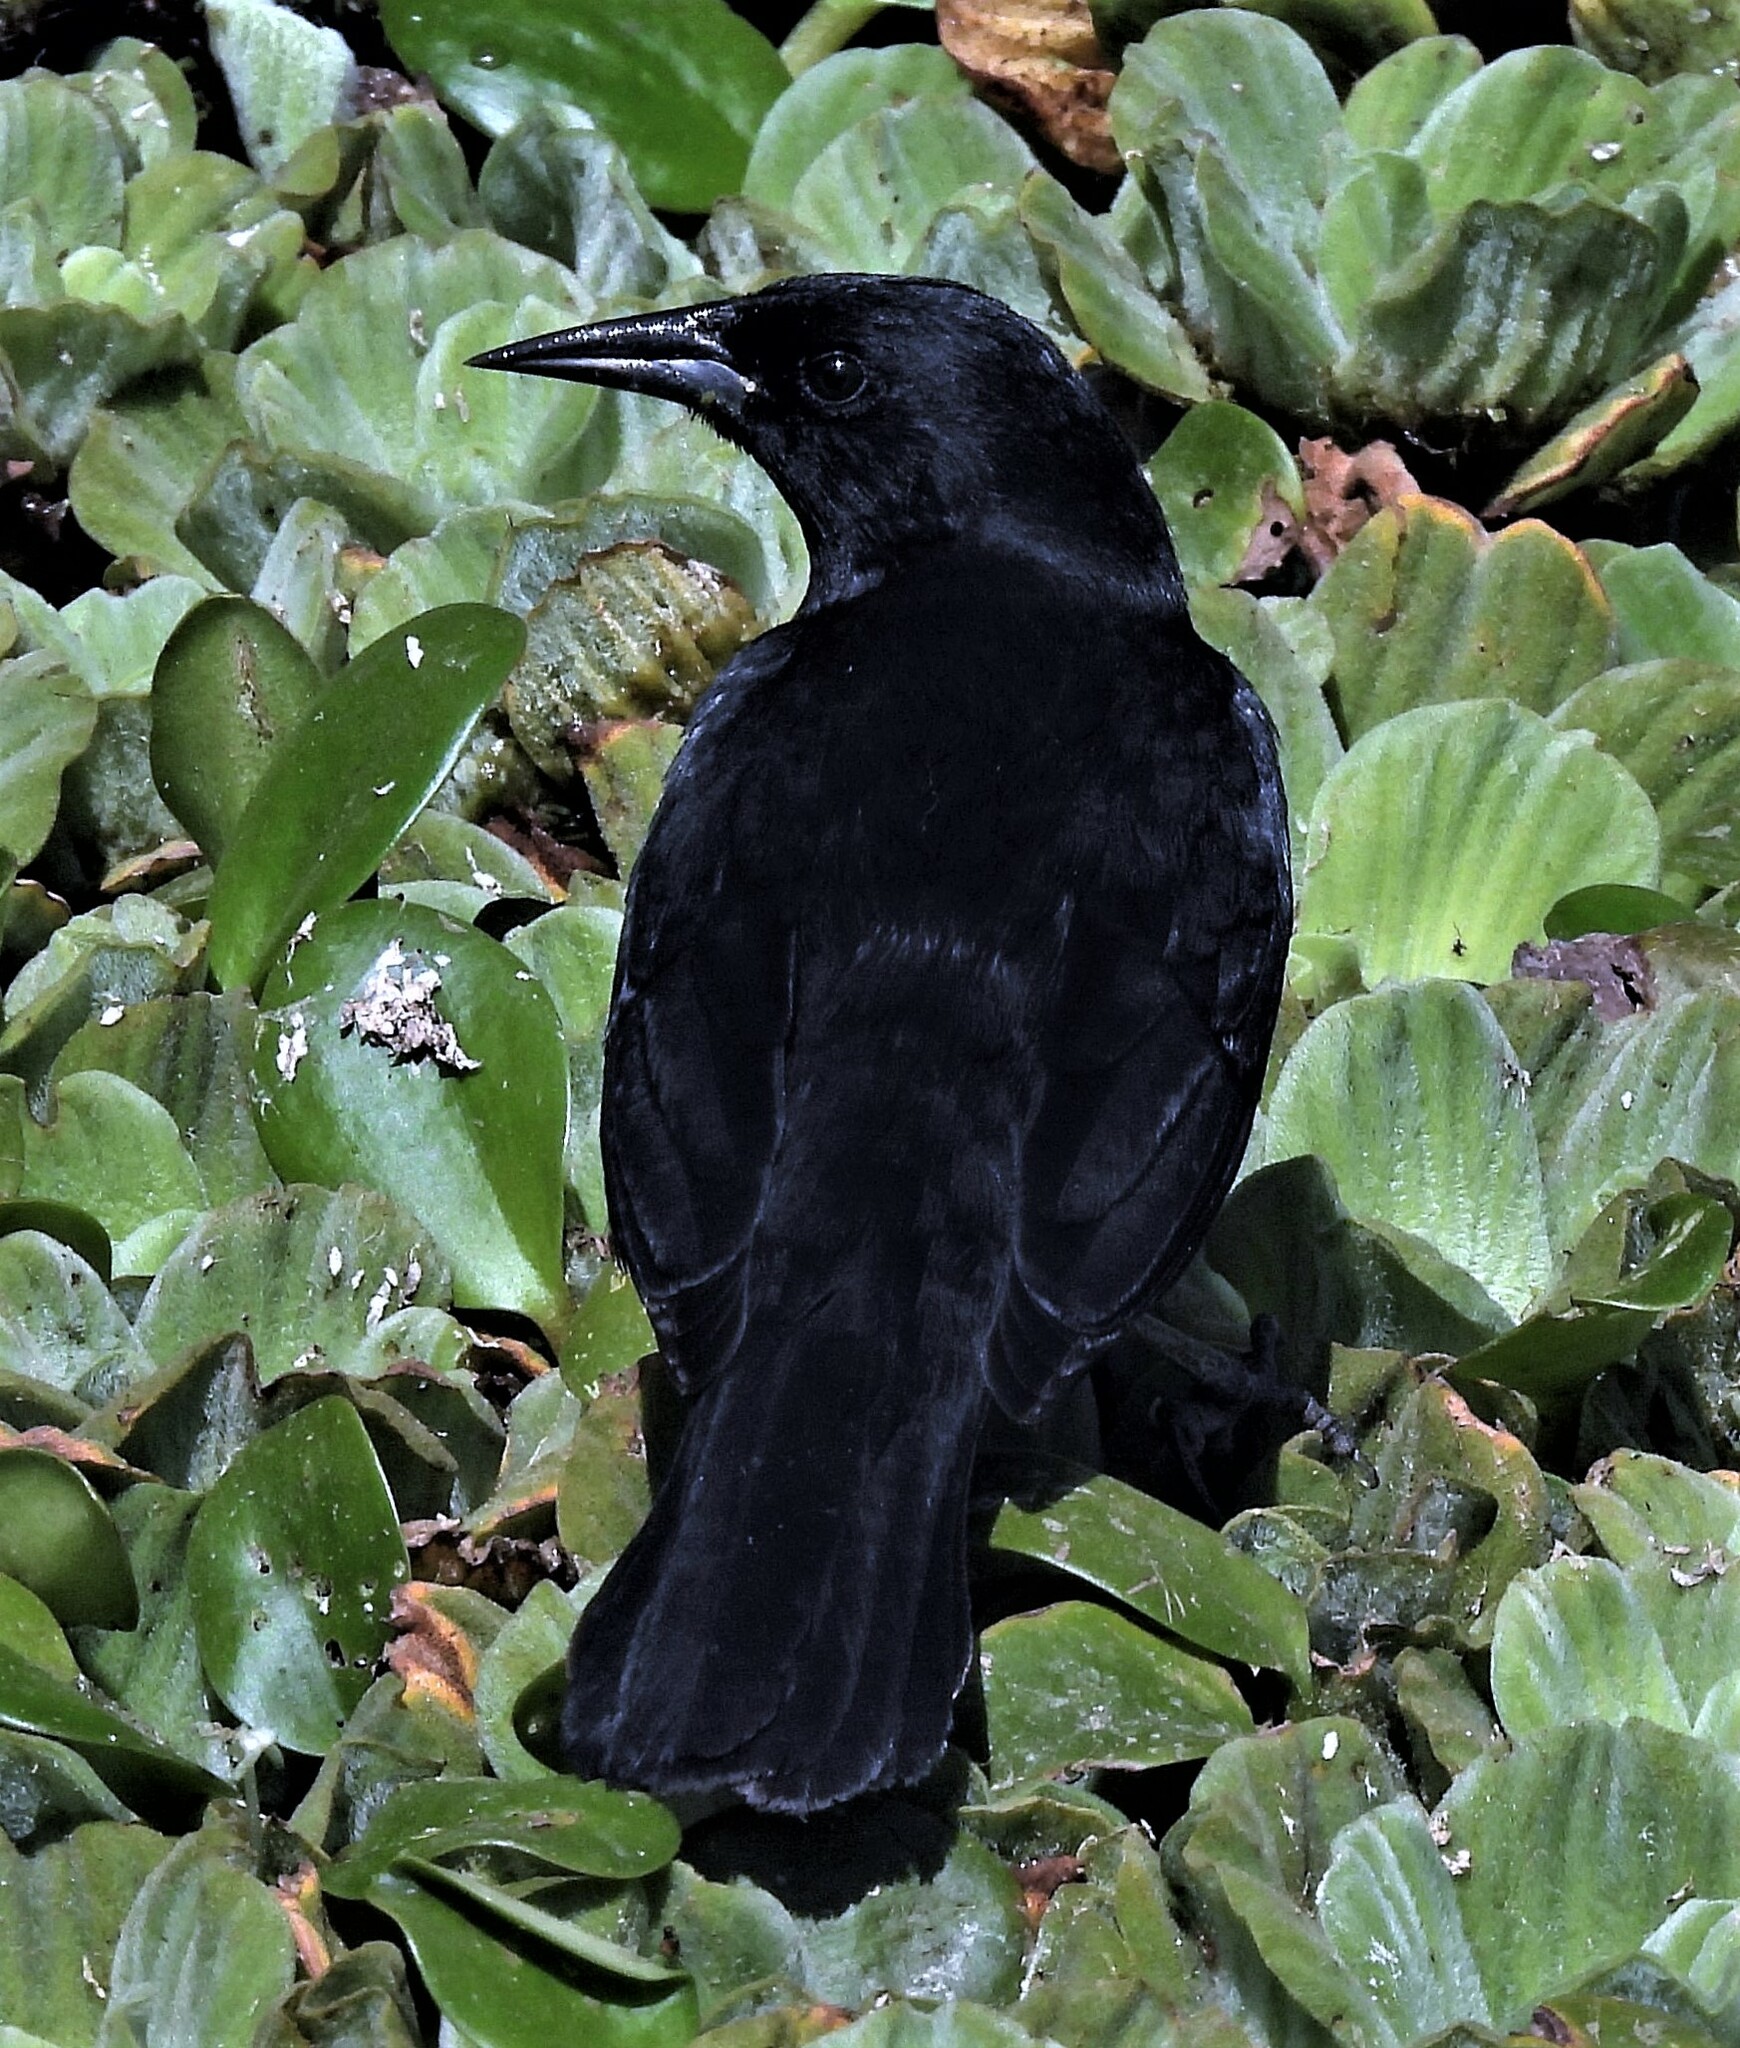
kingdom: Animalia
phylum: Chordata
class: Aves
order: Passeriformes
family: Icteridae
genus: Agelasticus
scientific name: Agelasticus cyanopus
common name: Unicolored blackbird
